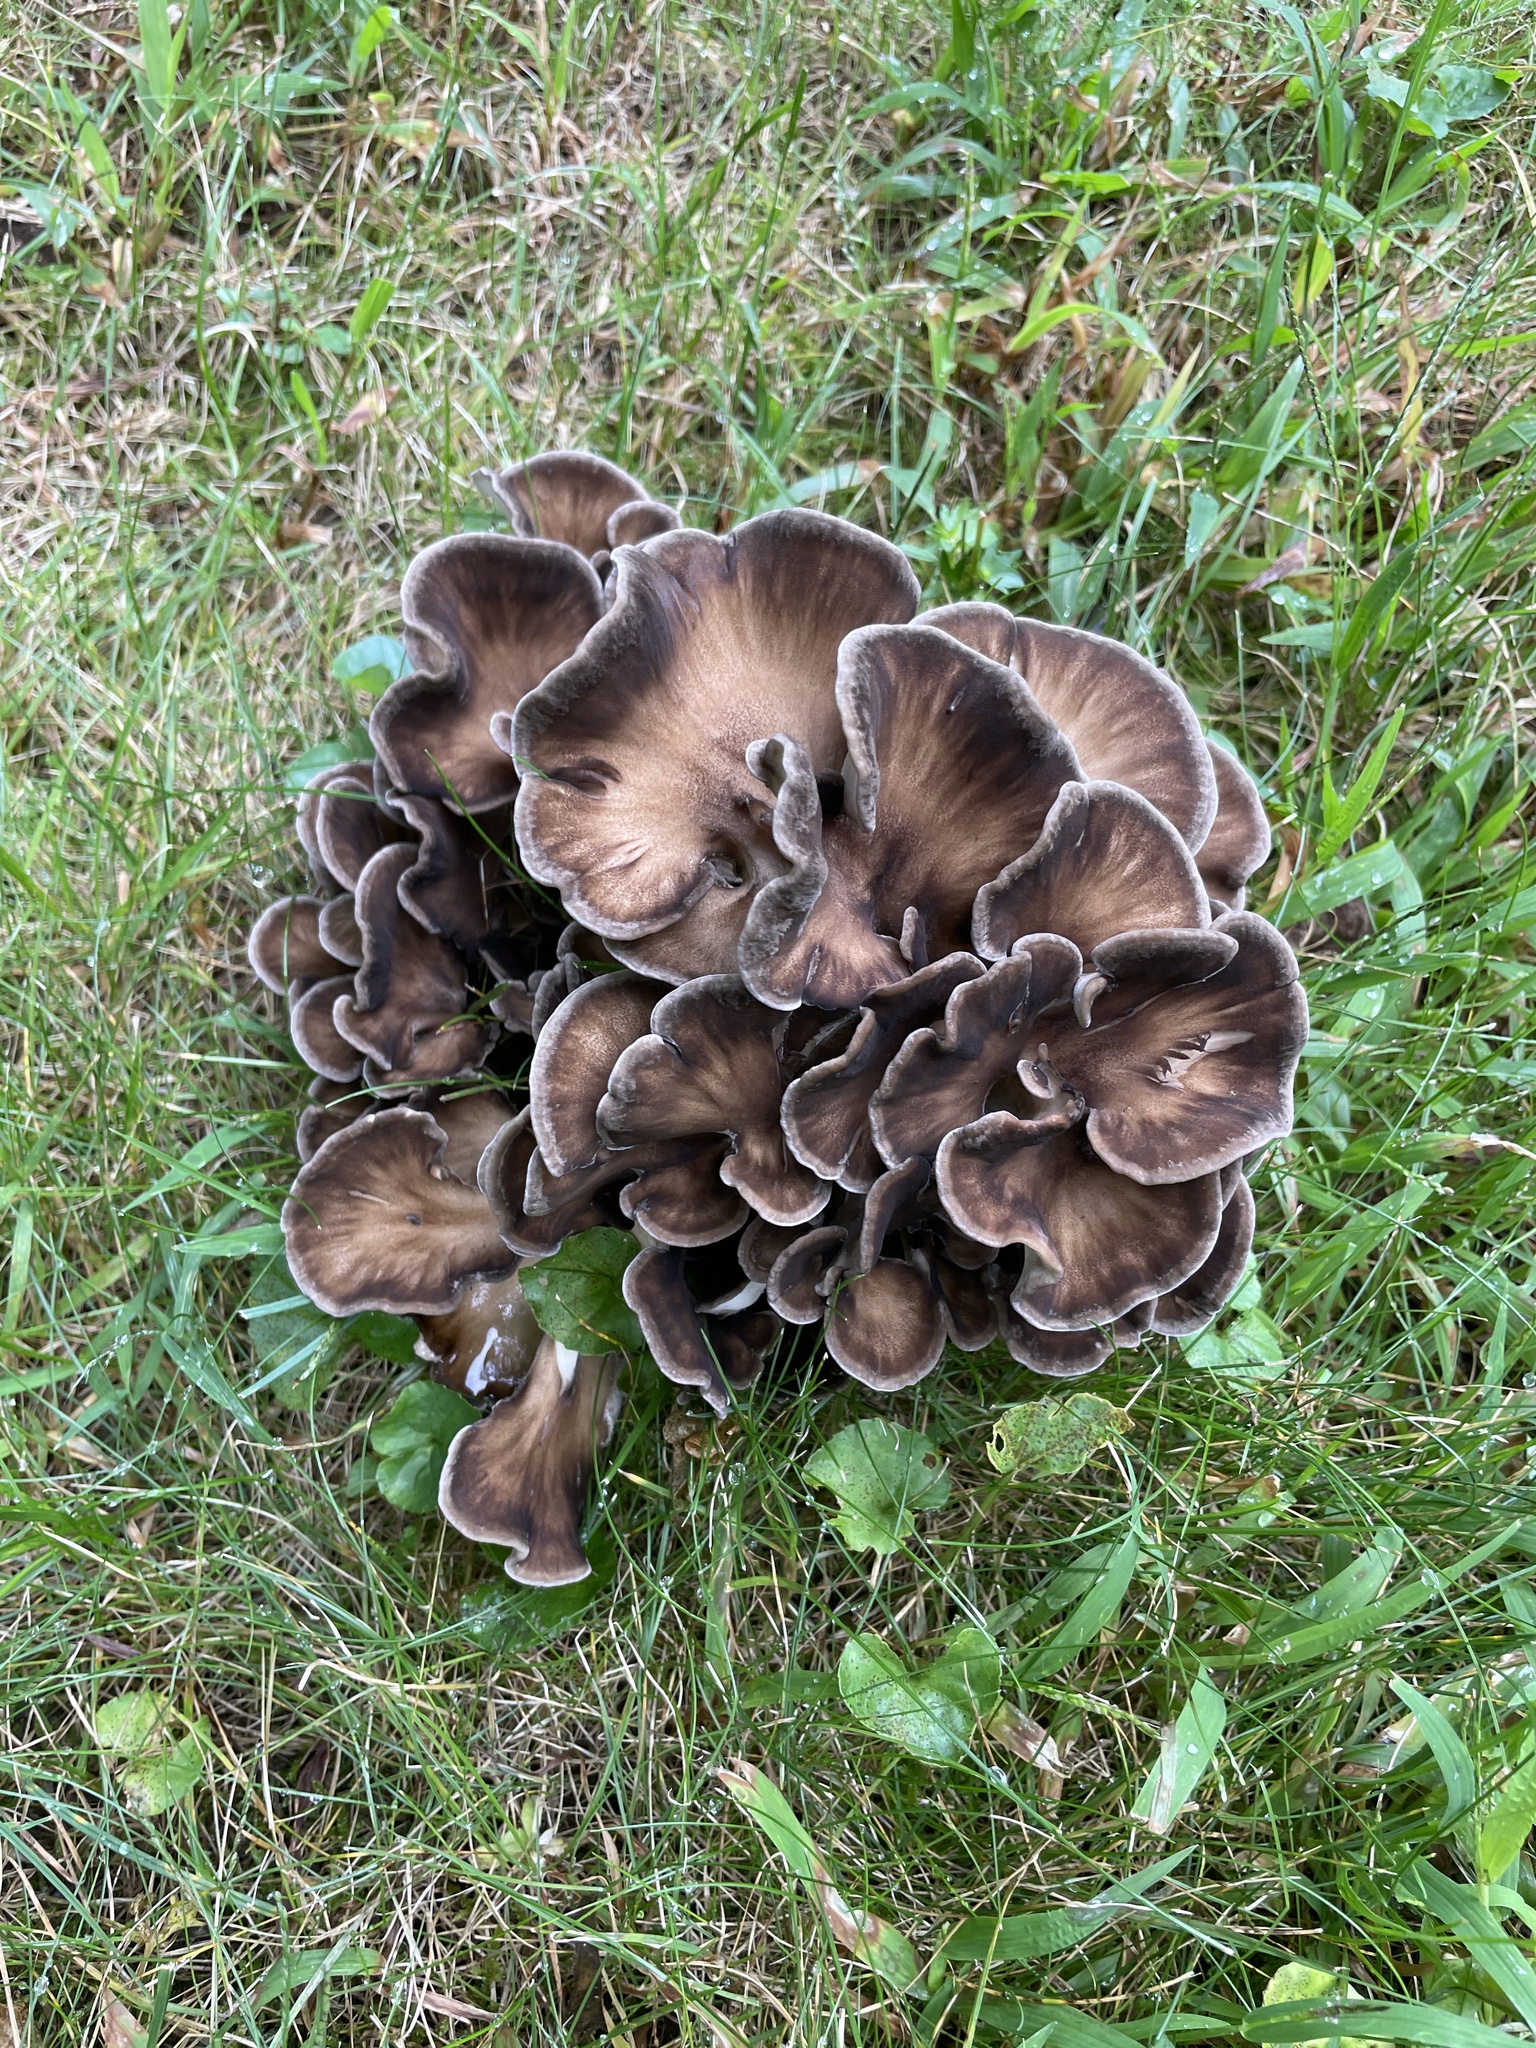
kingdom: Fungi
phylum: Basidiomycota
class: Agaricomycetes
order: Polyporales
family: Grifolaceae
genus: Grifola
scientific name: Grifola frondosa
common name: Hen of the woods
